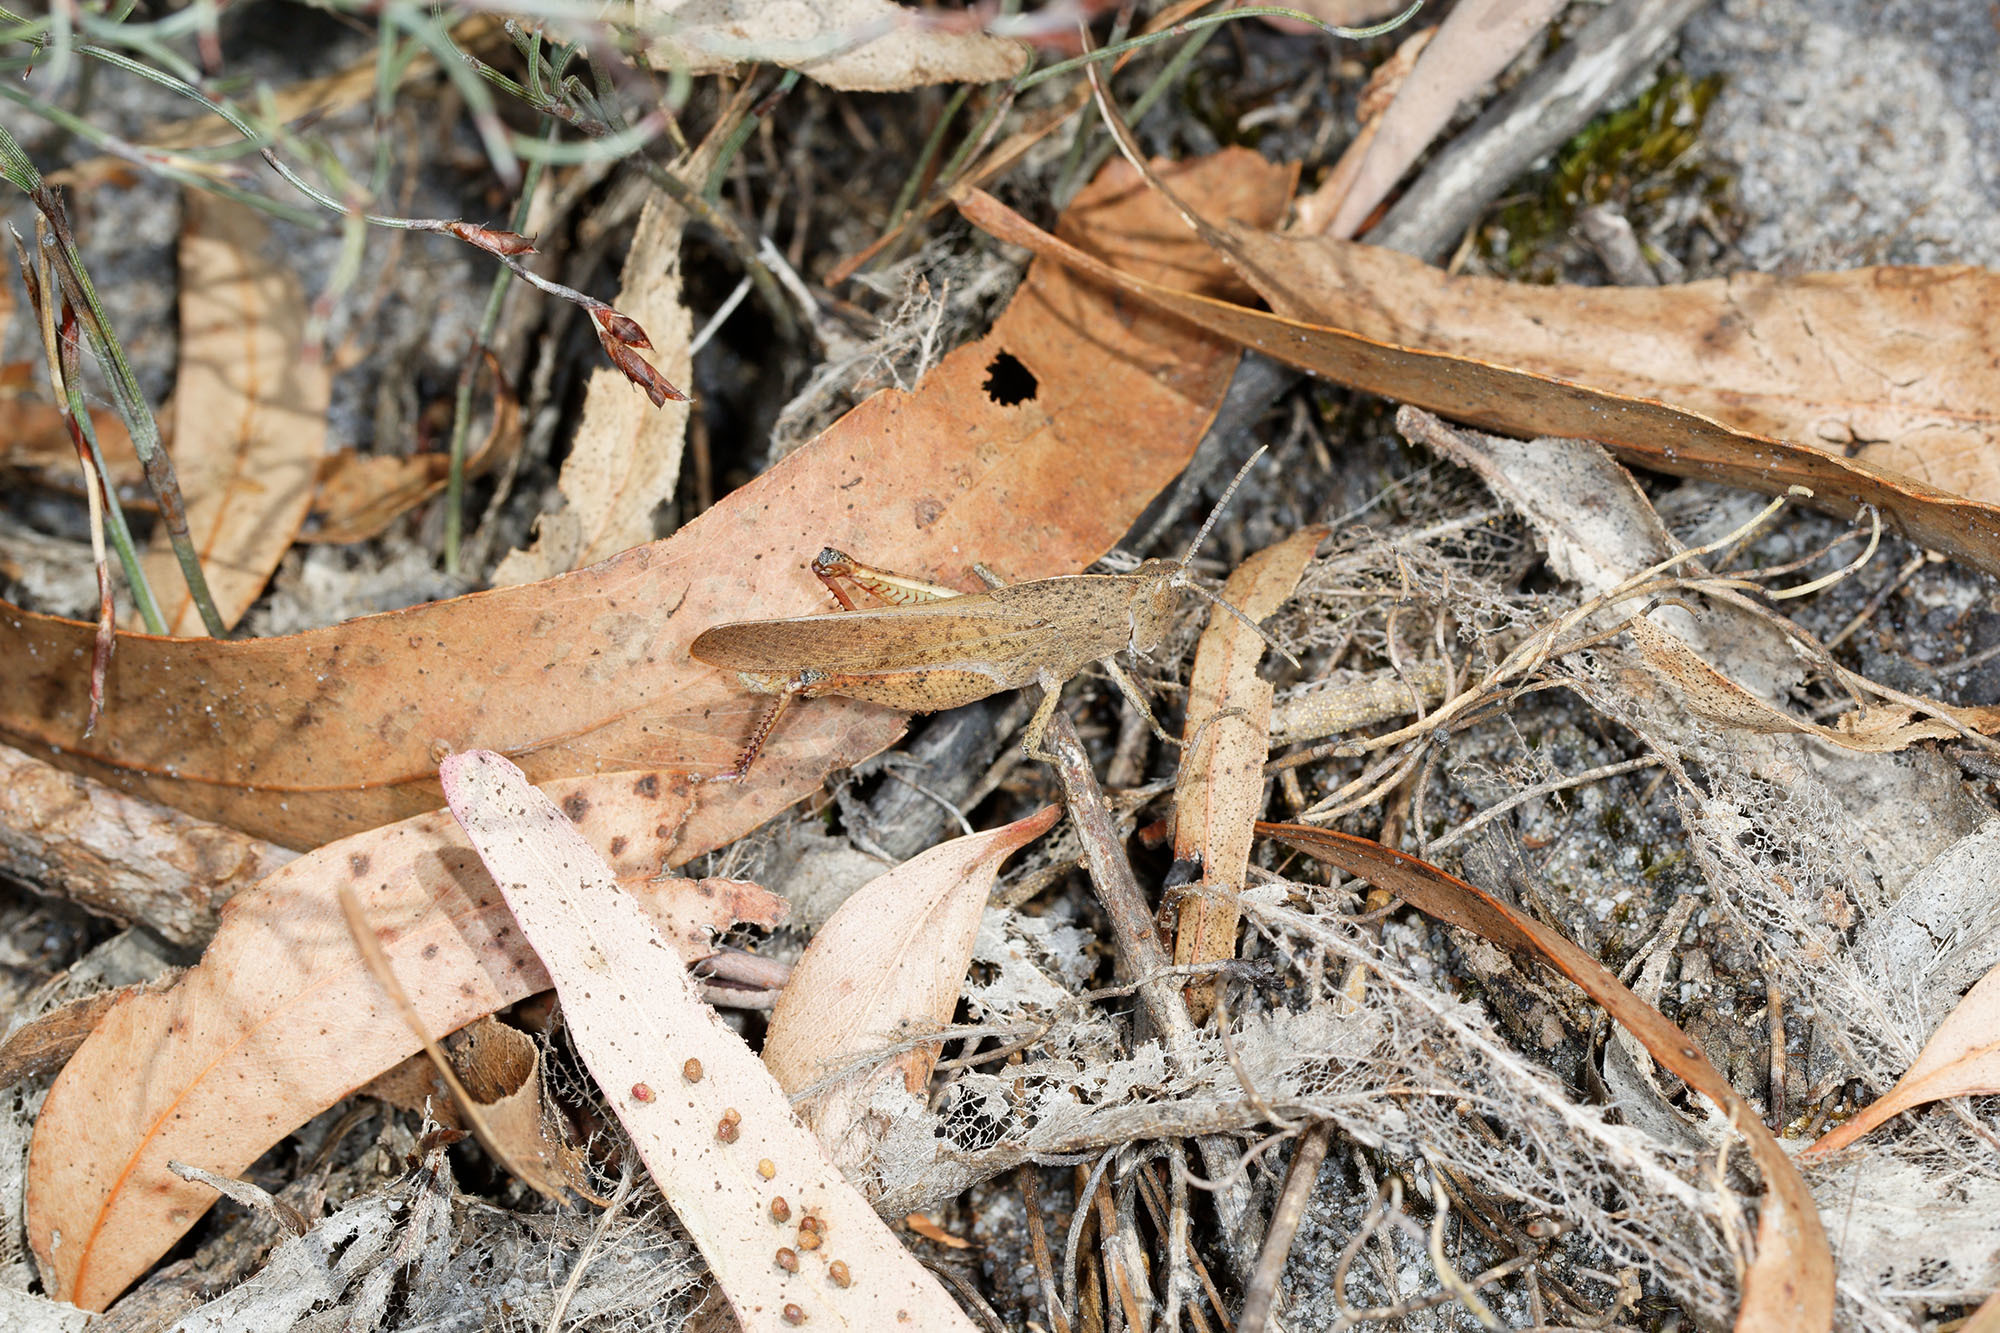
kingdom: Animalia
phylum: Arthropoda
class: Insecta
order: Orthoptera
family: Acrididae
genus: Goniaea
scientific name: Goniaea australasiae
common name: Gumleaf grasshopper
